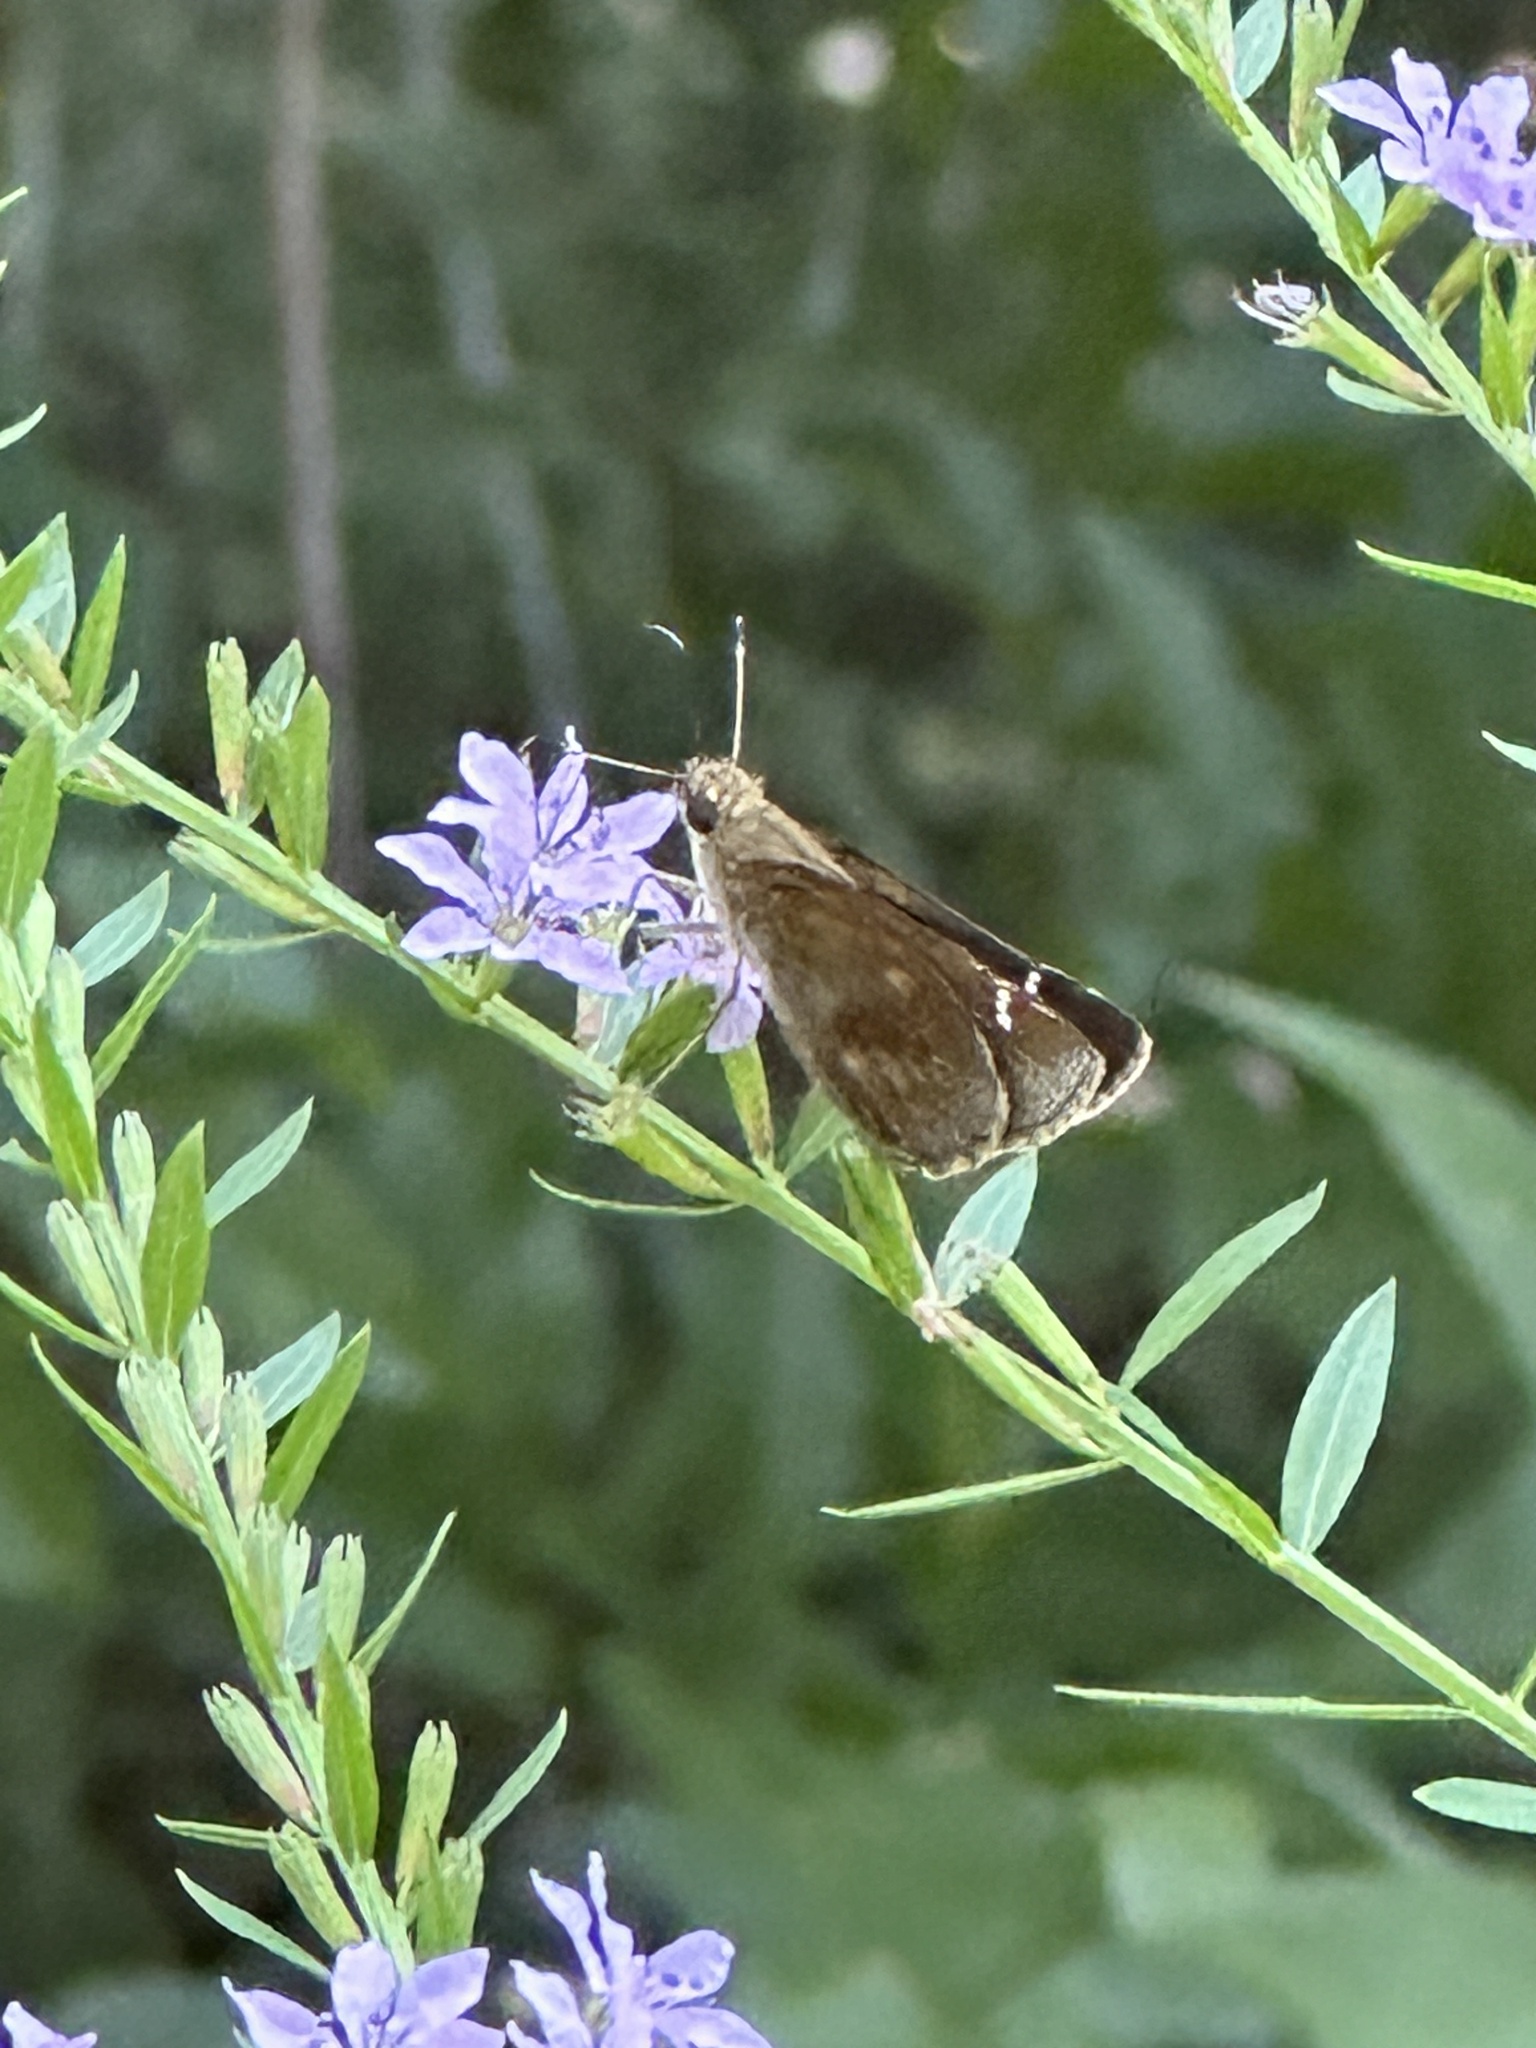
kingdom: Animalia
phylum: Arthropoda
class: Insecta
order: Lepidoptera
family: Hesperiidae
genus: Lerema
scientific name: Lerema accius
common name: Clouded skipper
